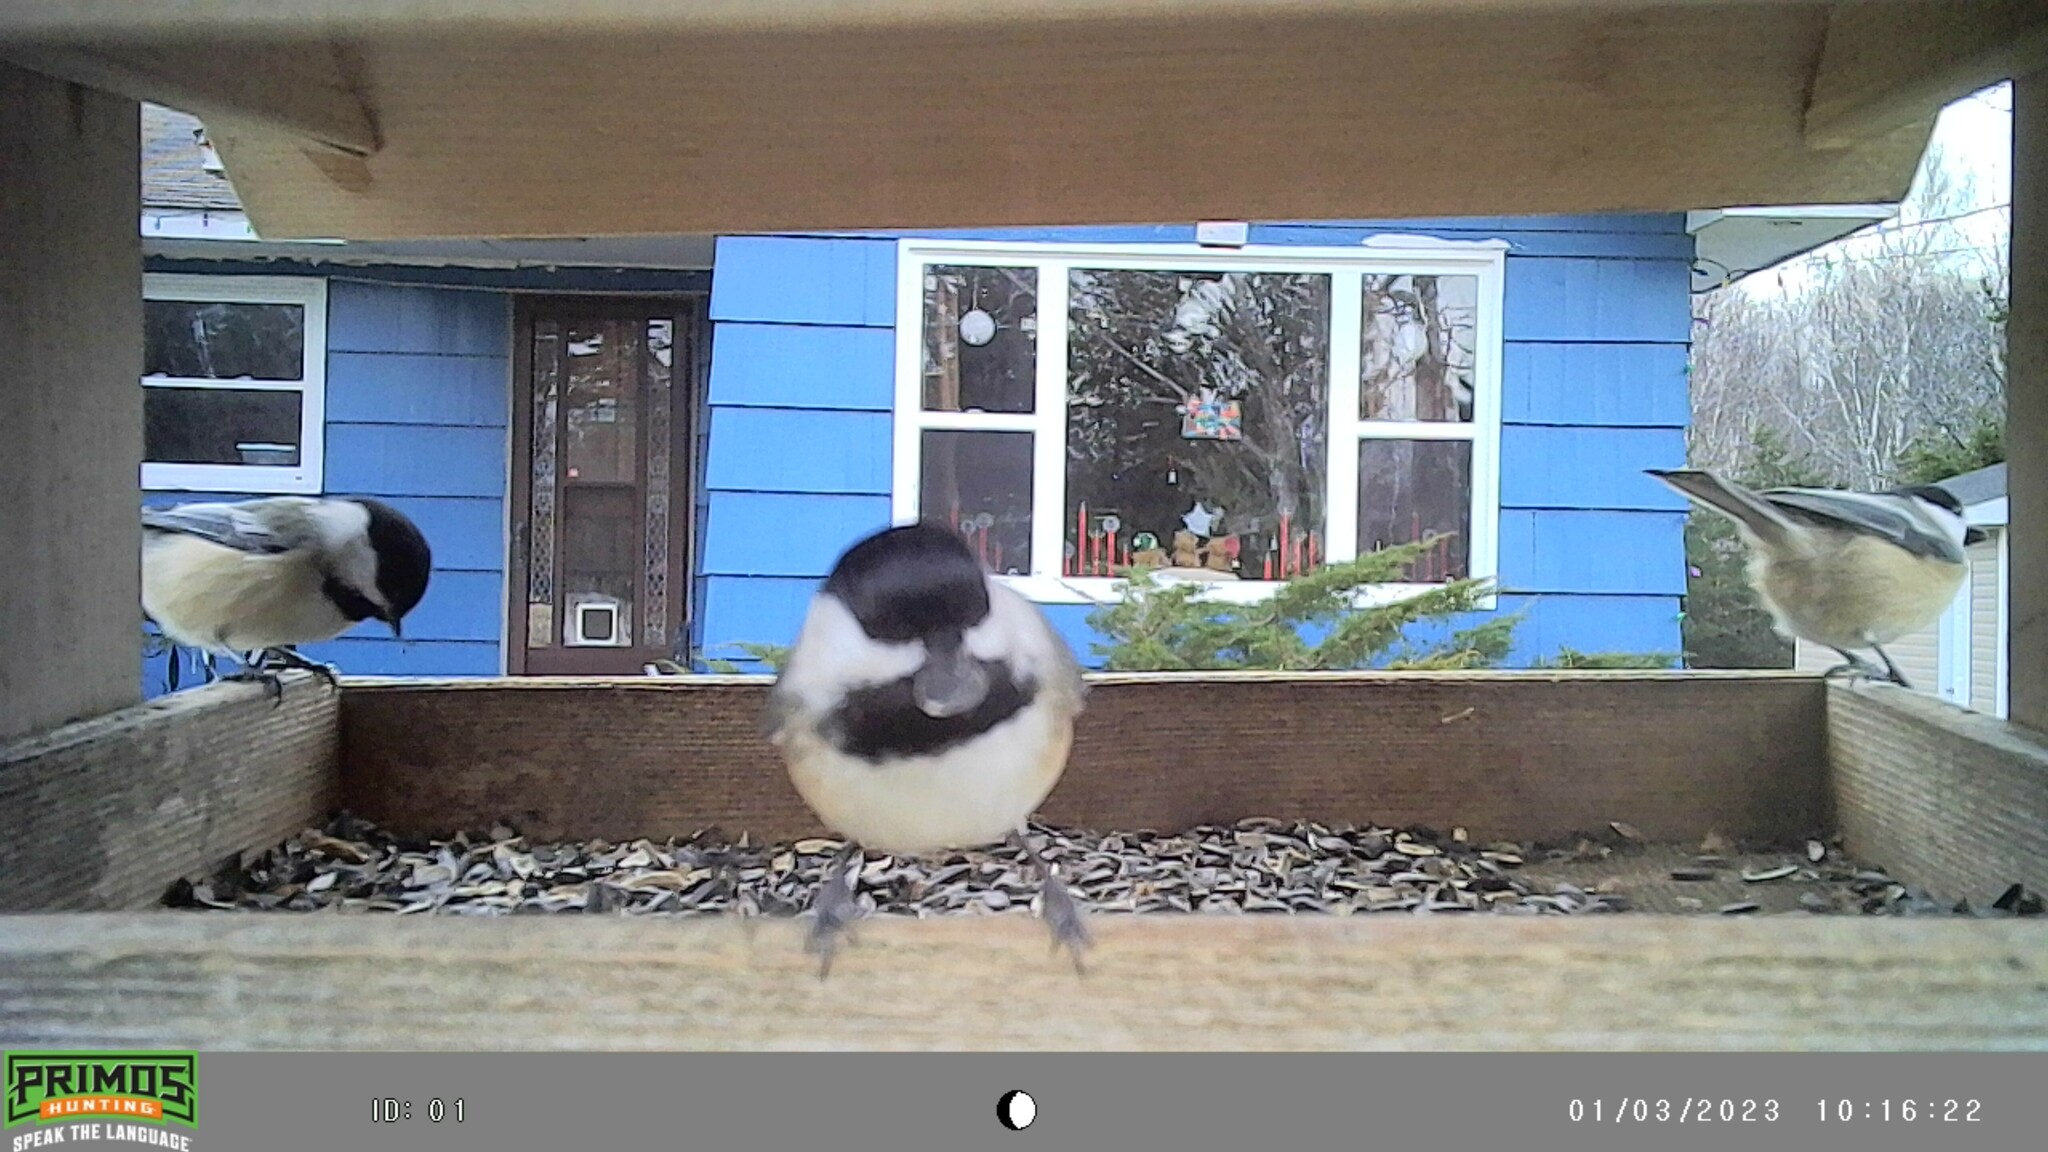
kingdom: Animalia
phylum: Chordata
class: Aves
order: Passeriformes
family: Paridae
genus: Poecile
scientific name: Poecile atricapillus
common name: Black-capped chickadee
